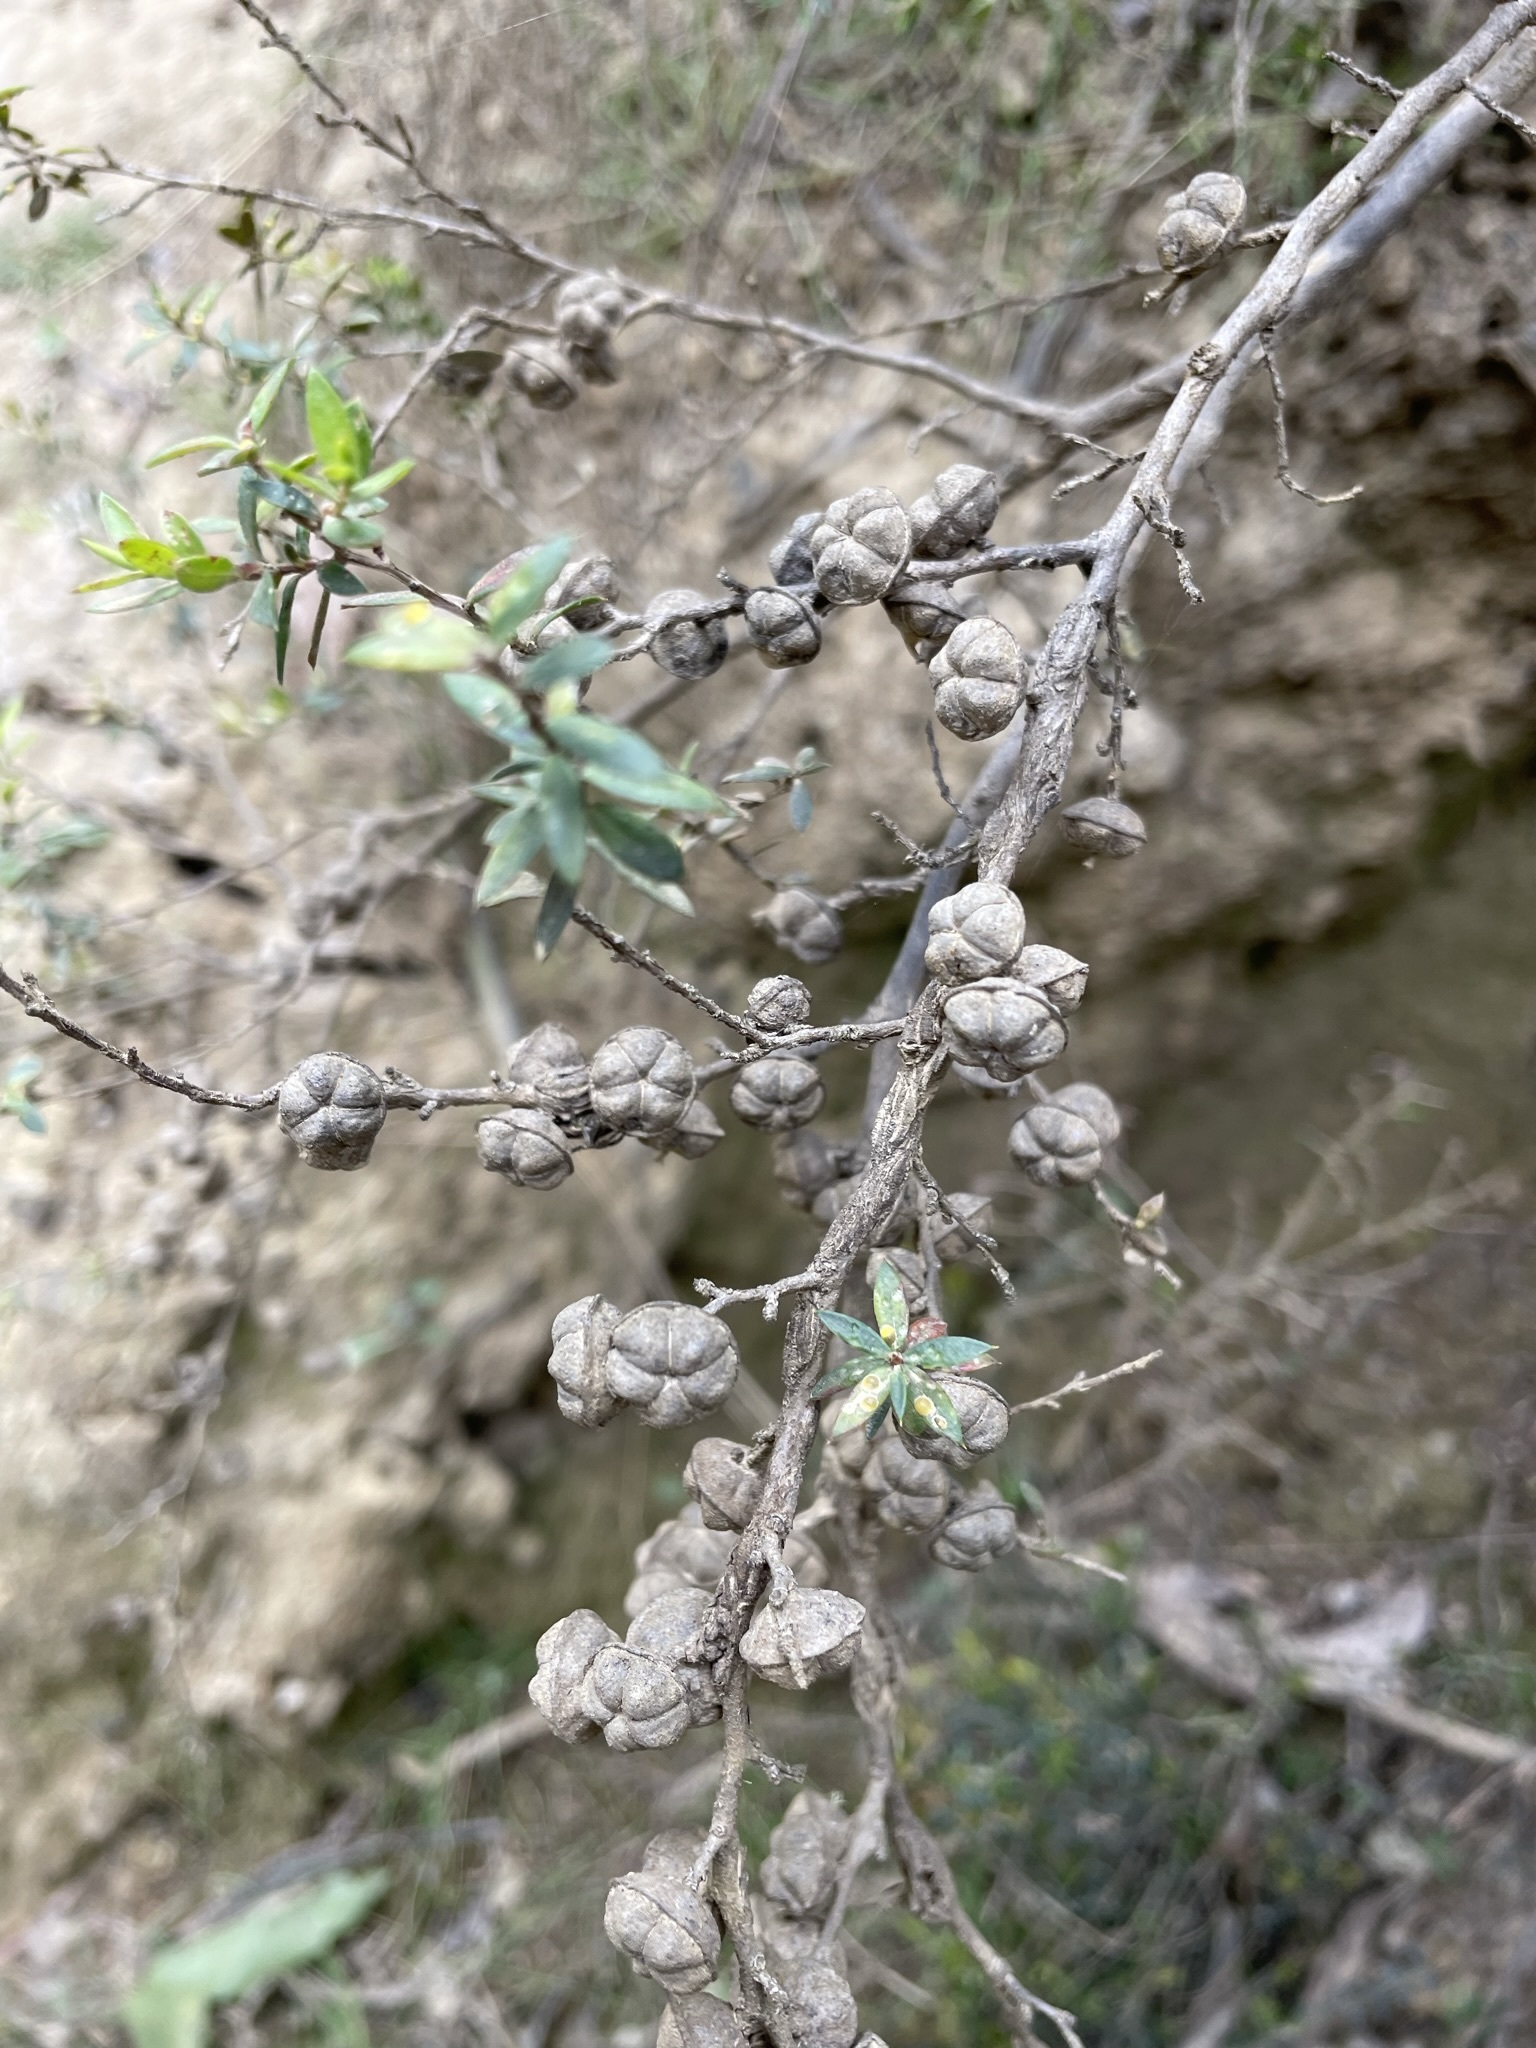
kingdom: Plantae
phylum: Tracheophyta
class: Magnoliopsida
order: Myrtales
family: Myrtaceae
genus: Leptospermum
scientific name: Leptospermum scoparium
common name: Broom tea-tree
